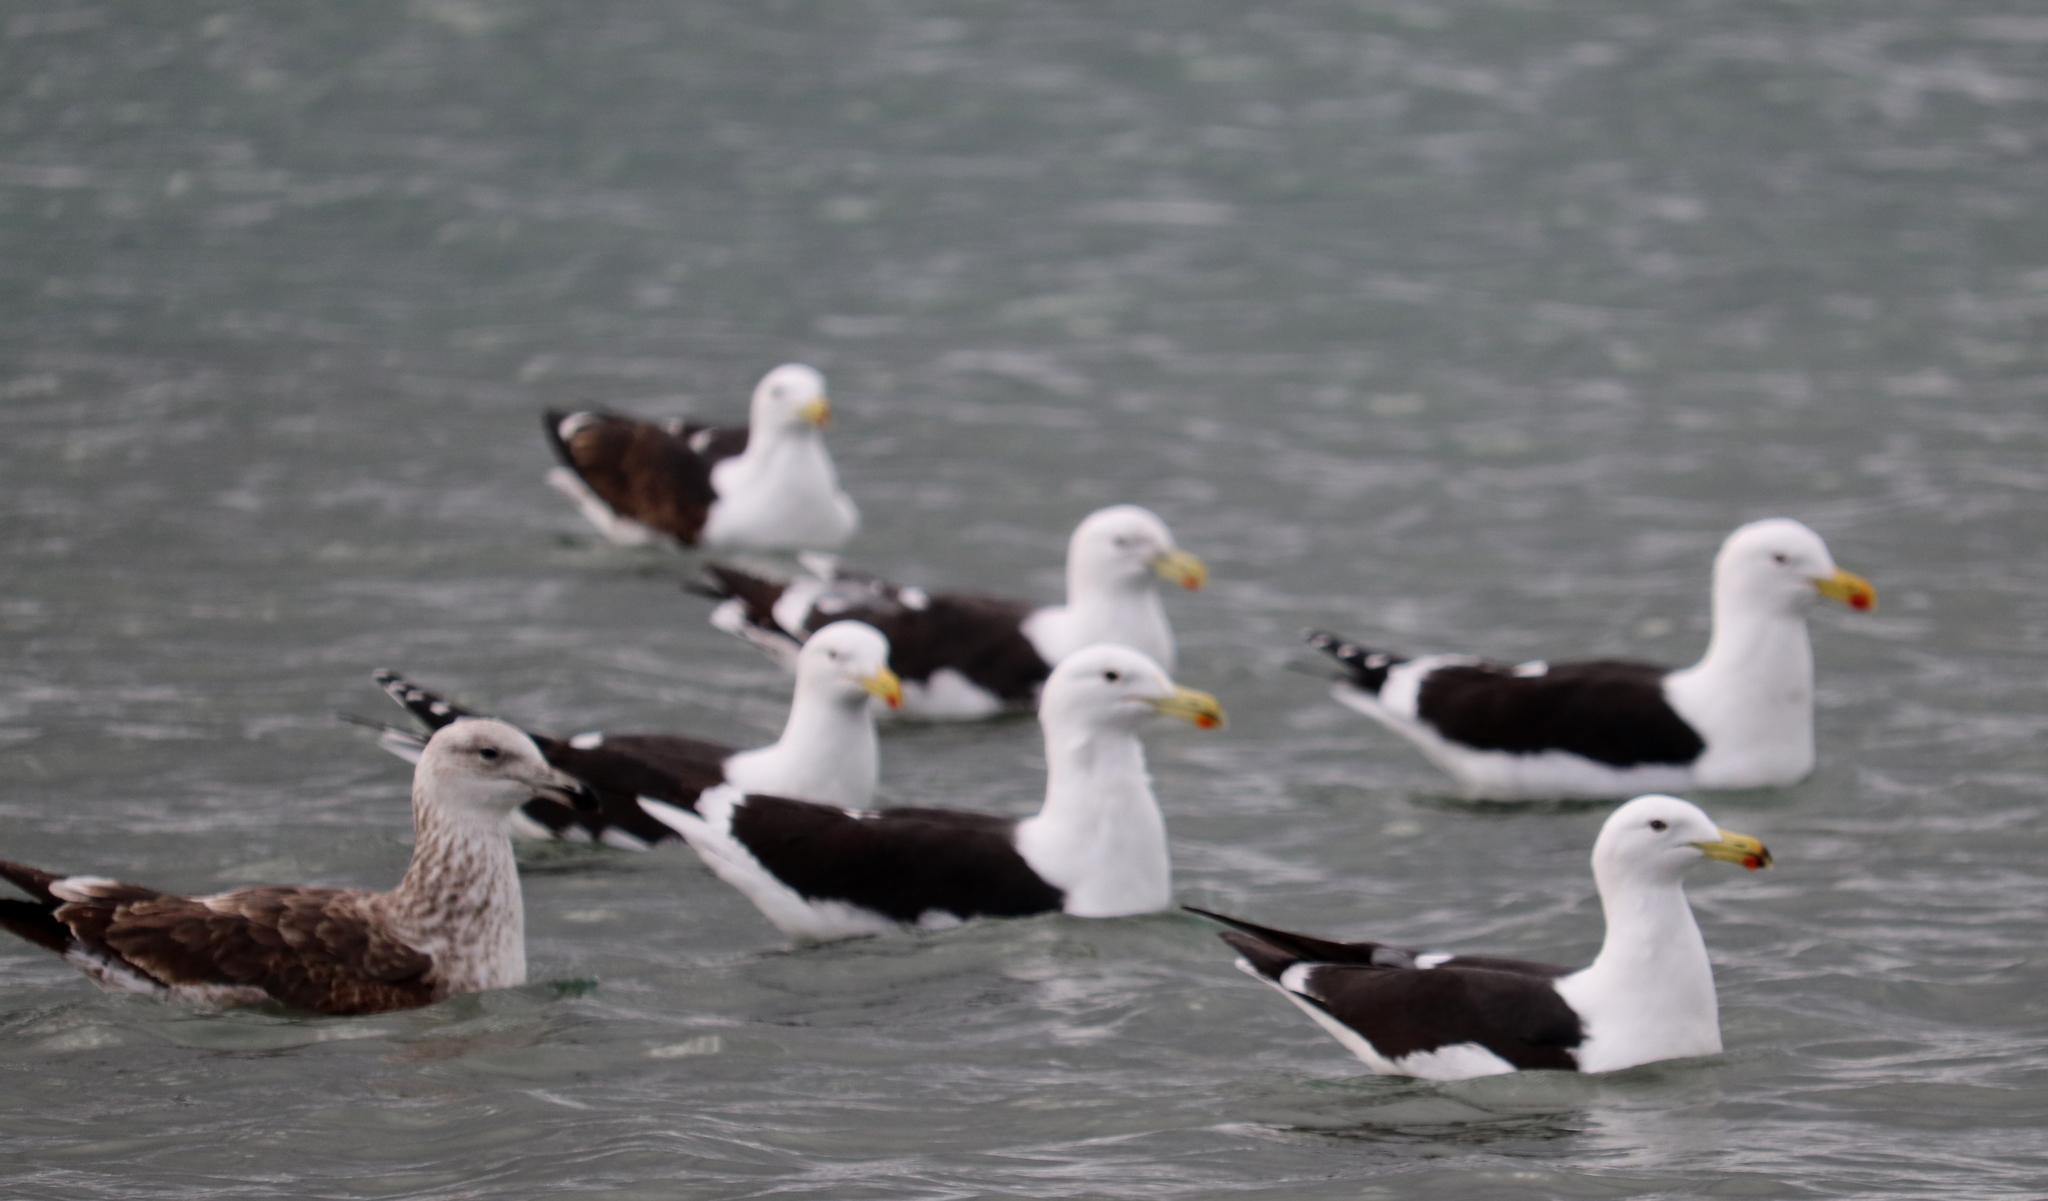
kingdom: Animalia
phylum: Chordata
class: Aves
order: Charadriiformes
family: Laridae
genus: Larus
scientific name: Larus dominicanus
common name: Kelp gull
